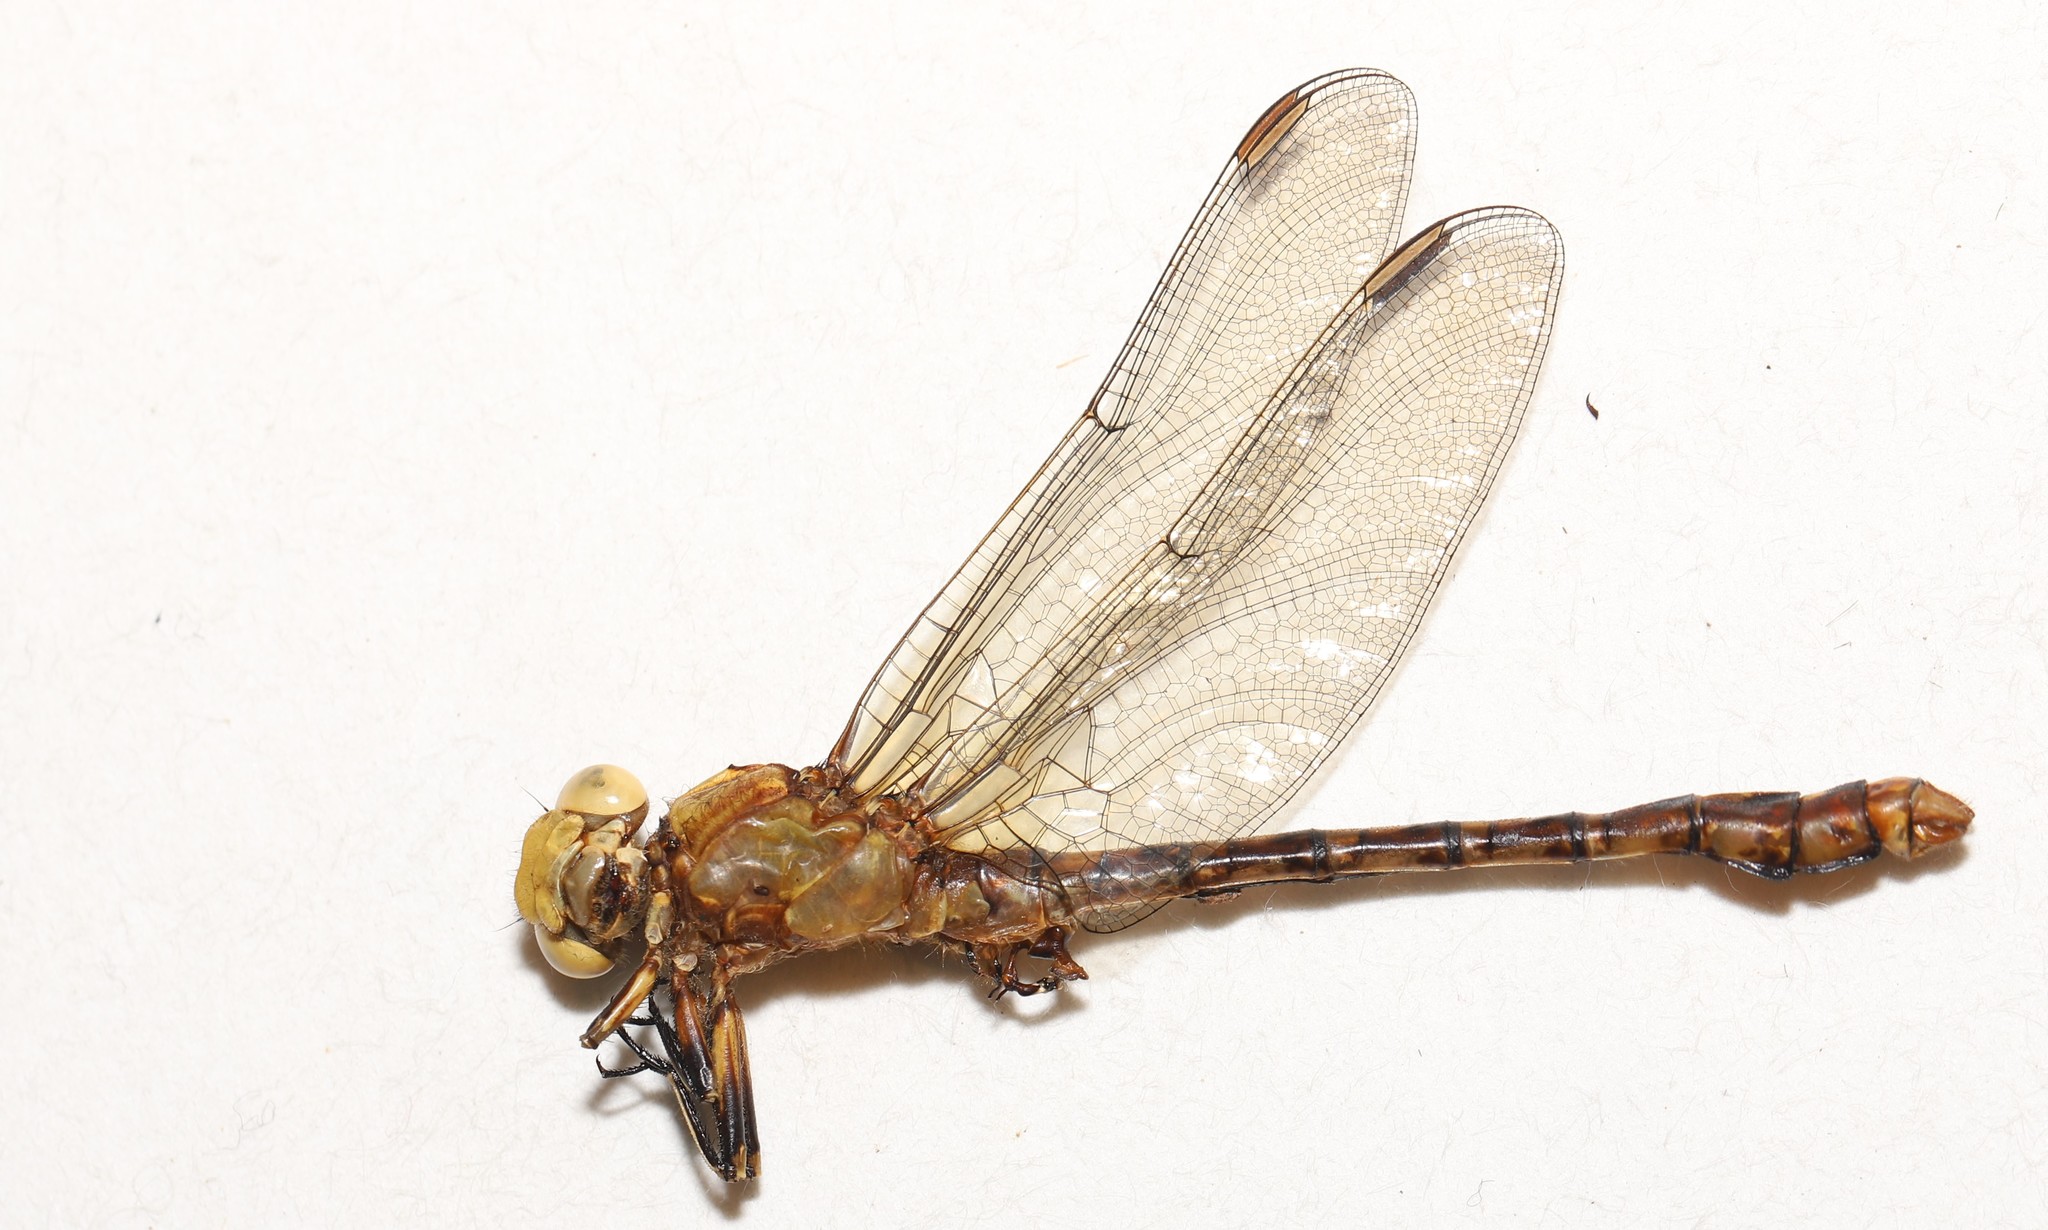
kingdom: Animalia
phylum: Arthropoda
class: Insecta
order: Odonata
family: Gomphidae
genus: Ophiogomphus
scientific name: Ophiogomphus rupinsulensis
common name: Rusty snaketail
